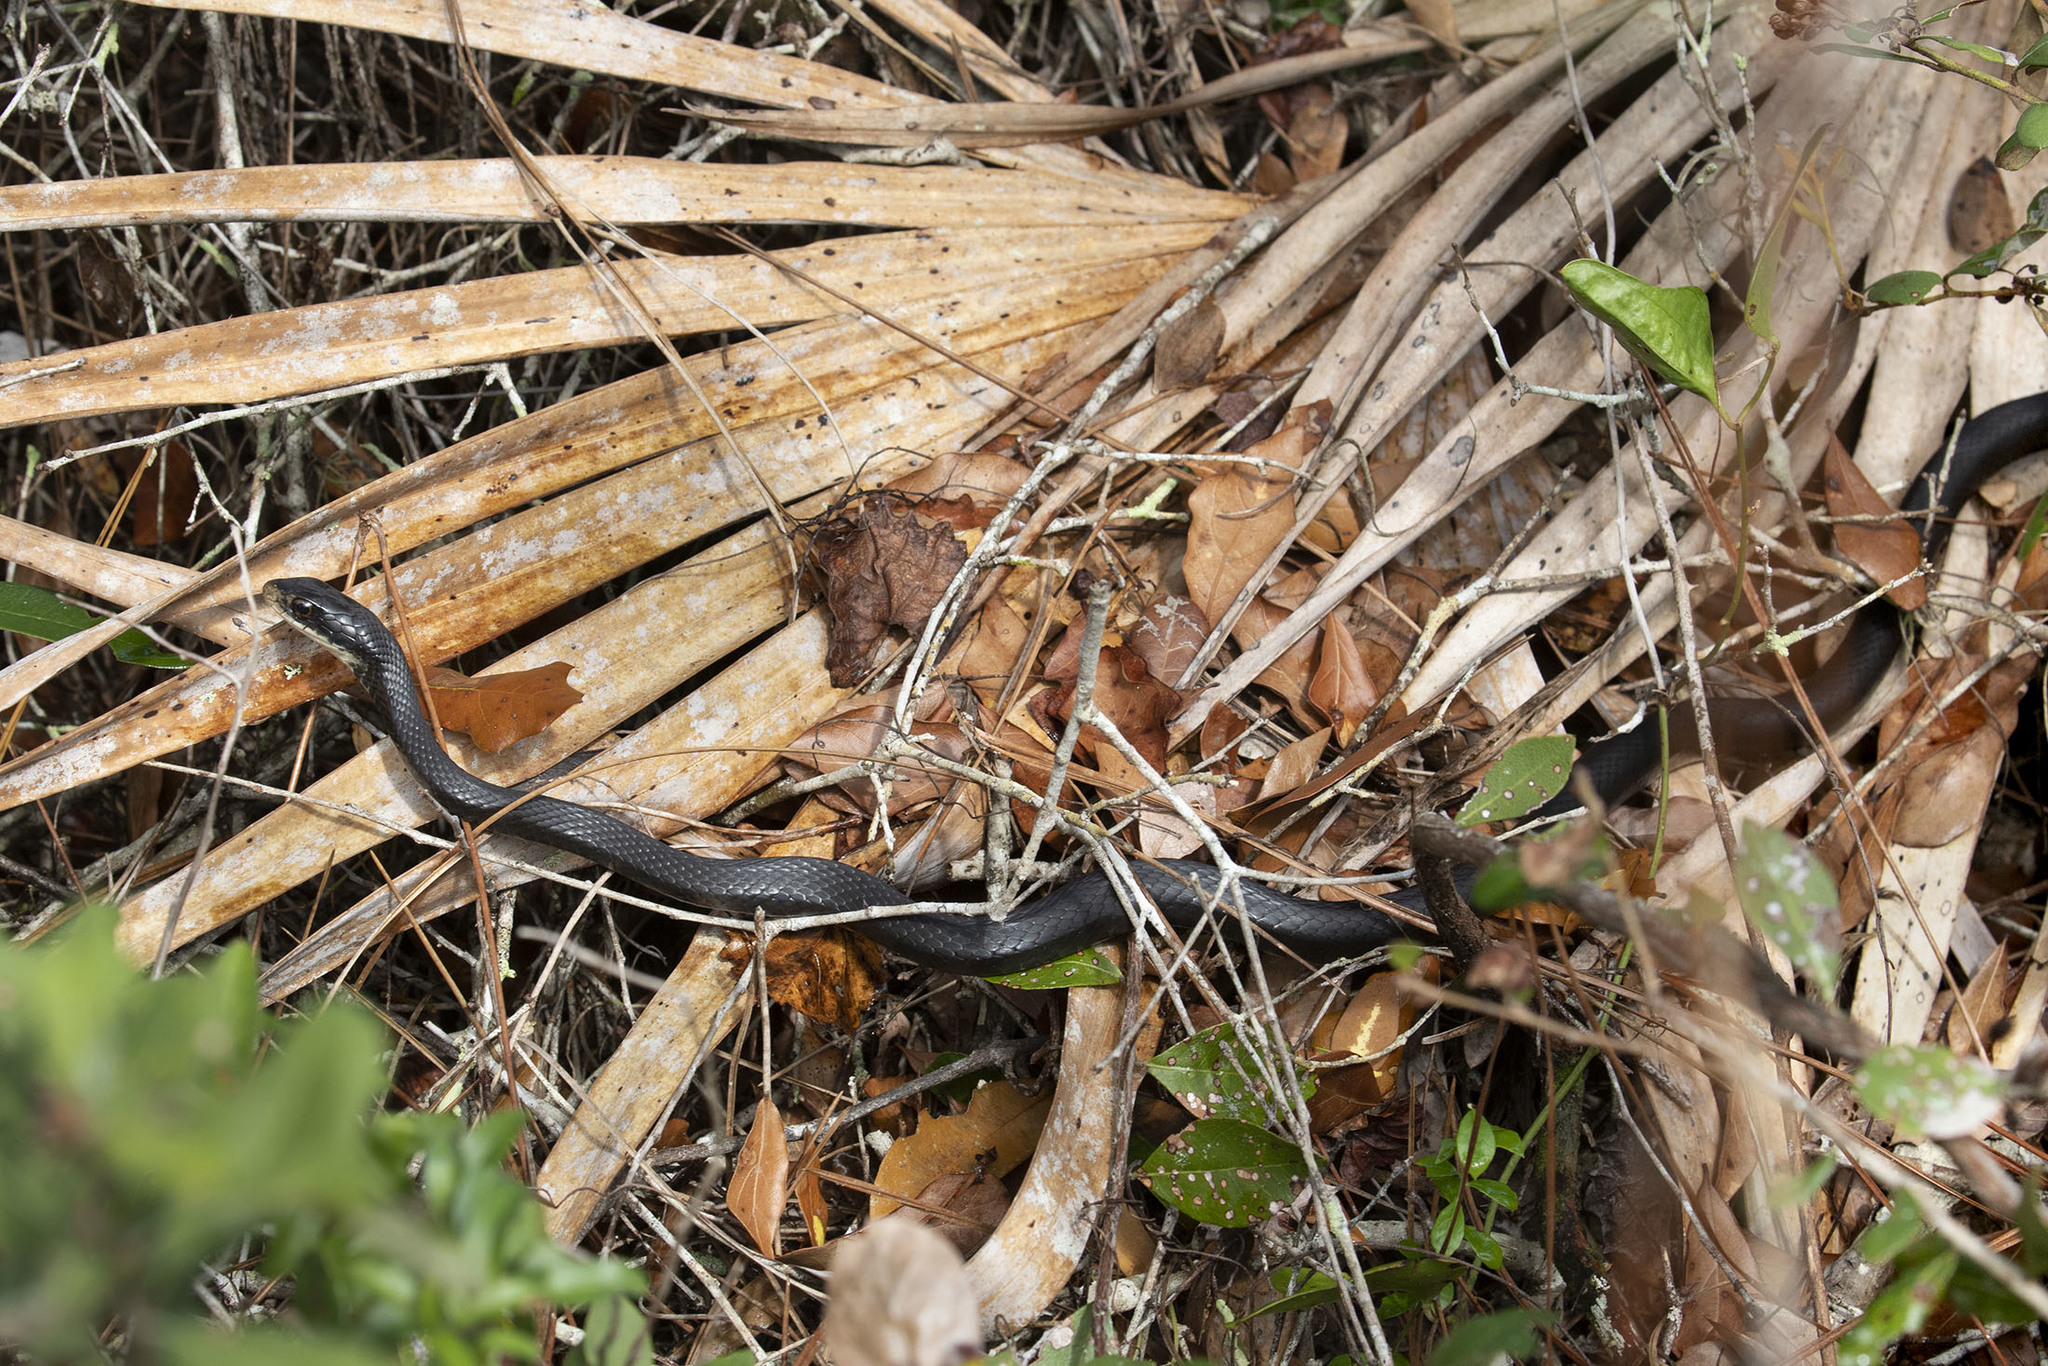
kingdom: Animalia
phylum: Chordata
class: Squamata
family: Colubridae
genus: Coluber
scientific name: Coluber constrictor
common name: Eastern racer
